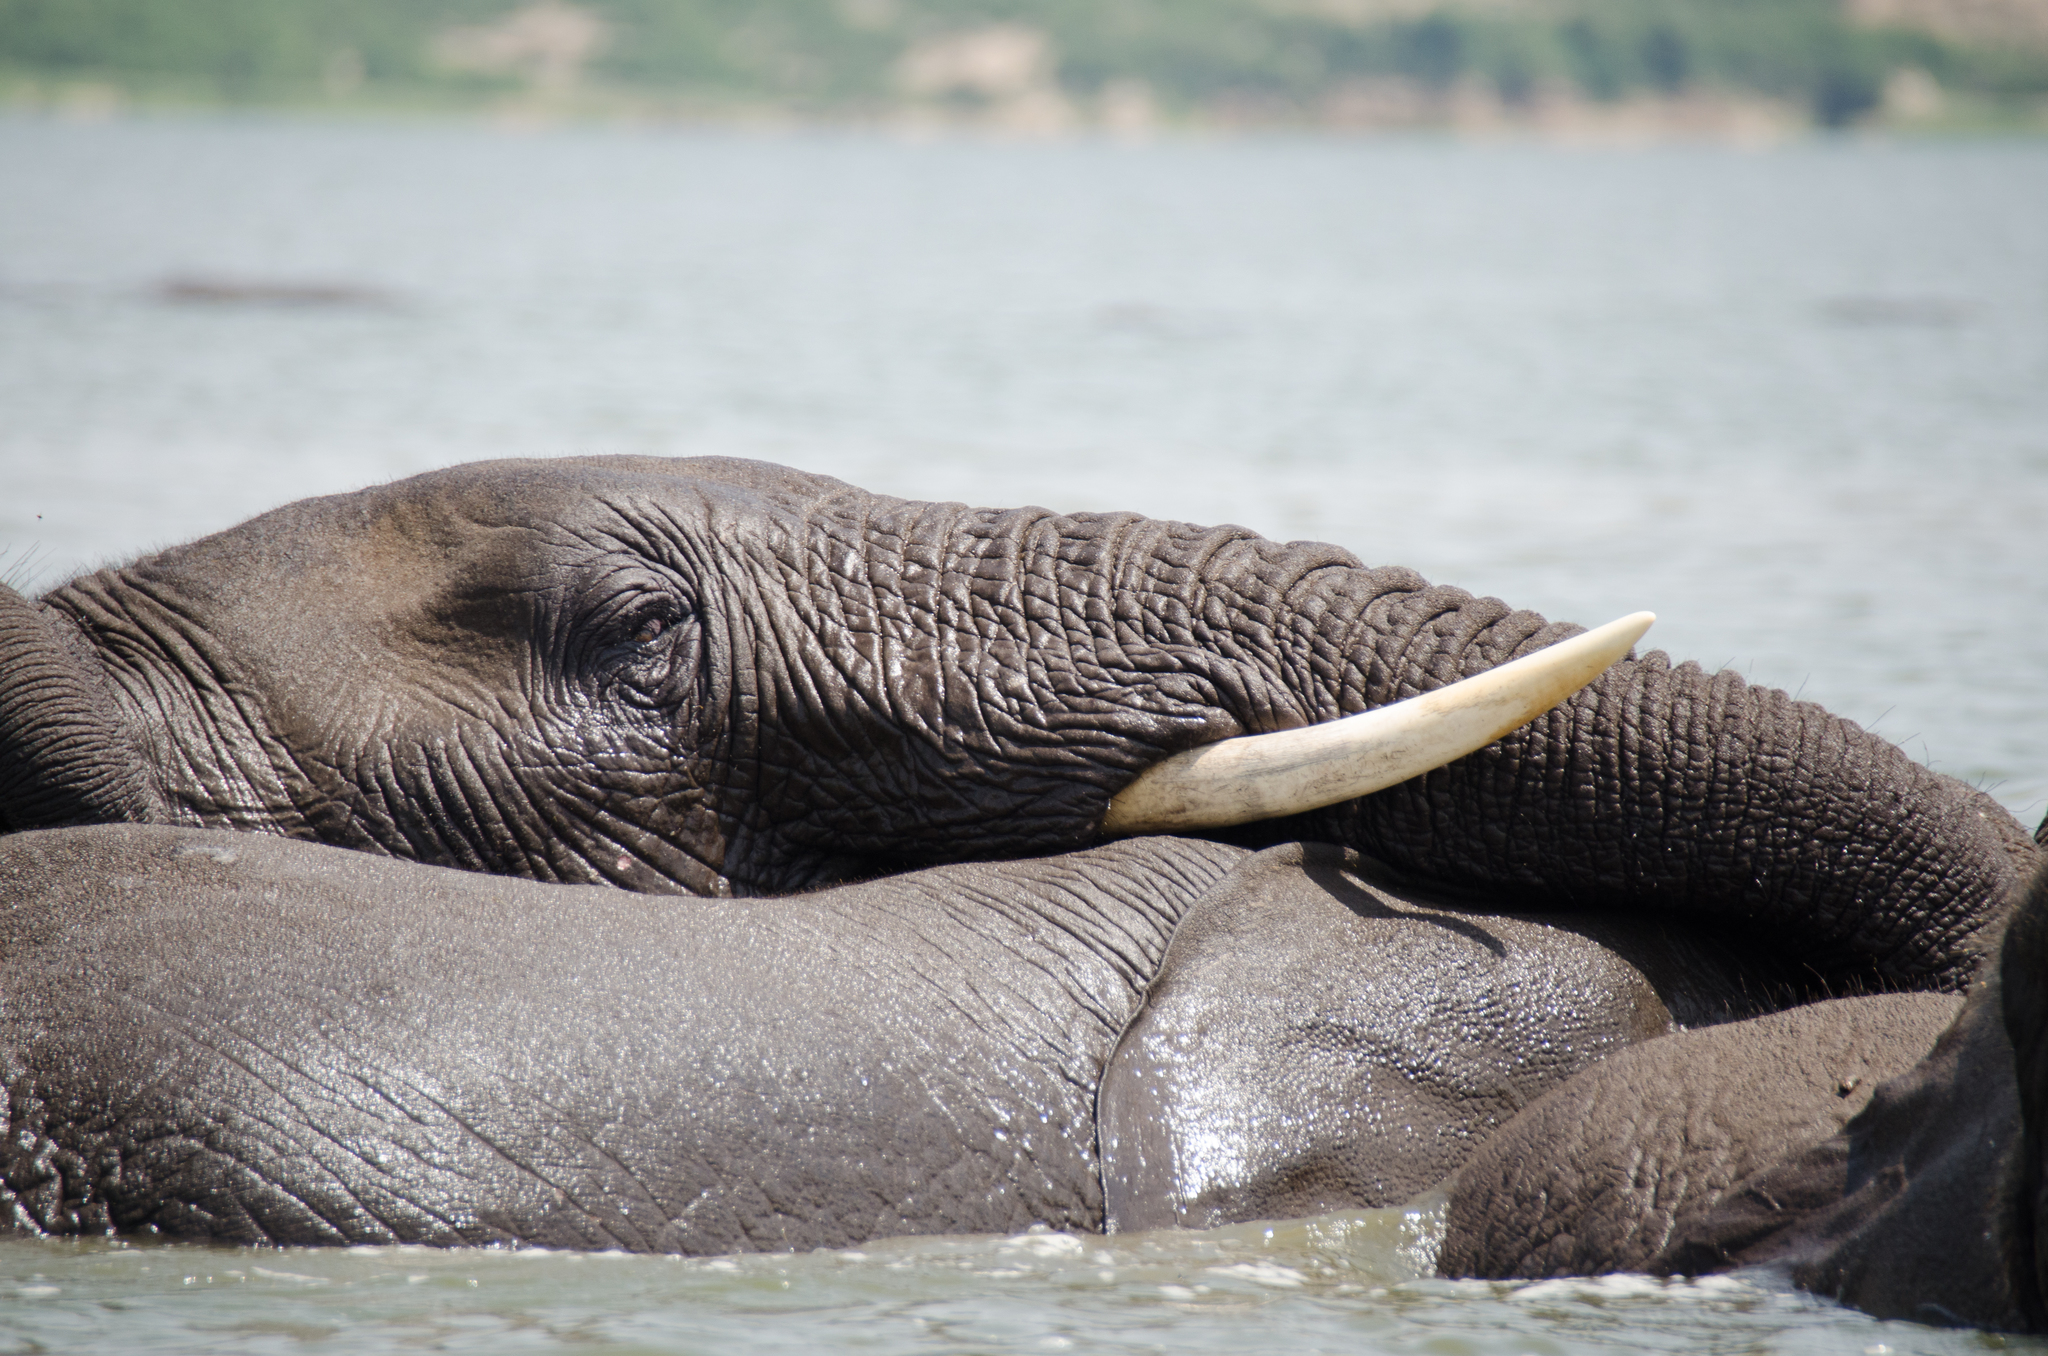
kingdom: Animalia
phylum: Chordata
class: Mammalia
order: Proboscidea
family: Elephantidae
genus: Loxodonta
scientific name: Loxodonta
